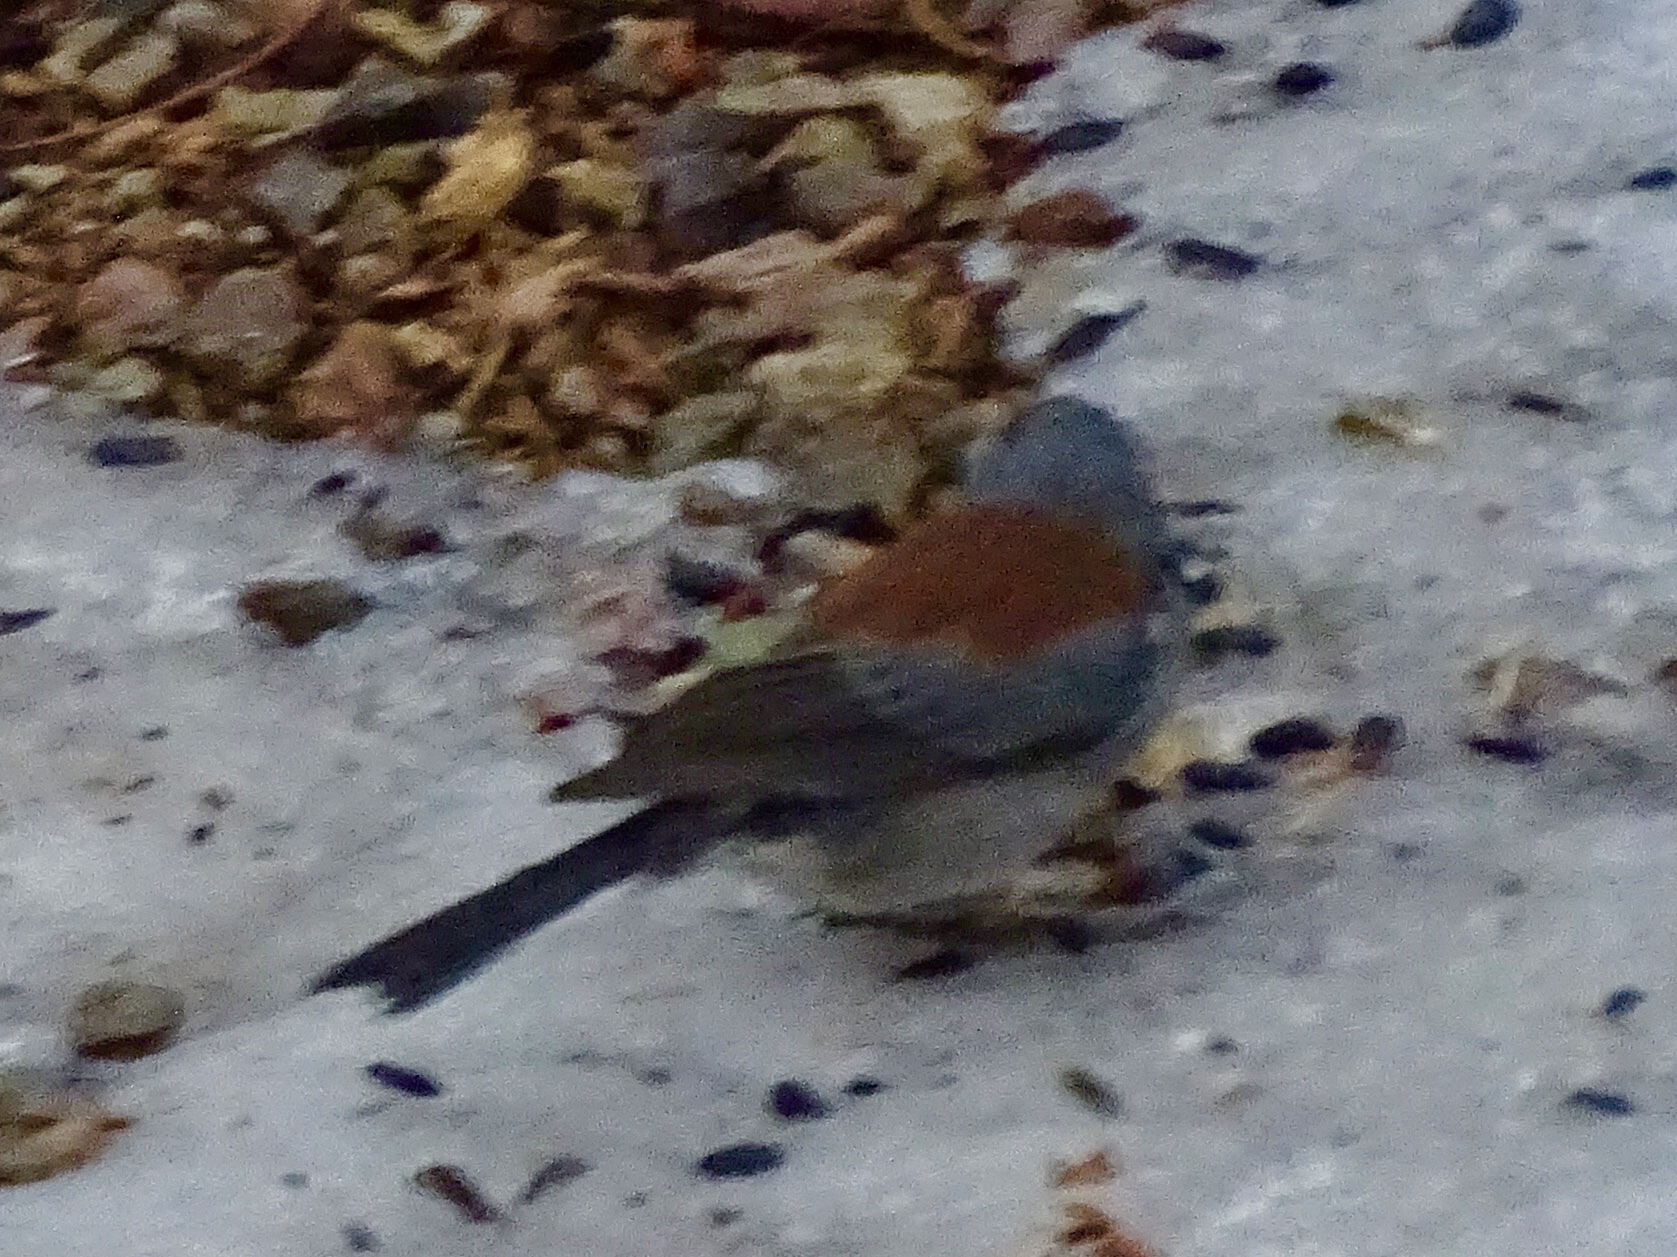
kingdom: Animalia
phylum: Chordata
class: Aves
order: Passeriformes
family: Passerellidae
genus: Junco
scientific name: Junco hyemalis
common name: Dark-eyed junco
